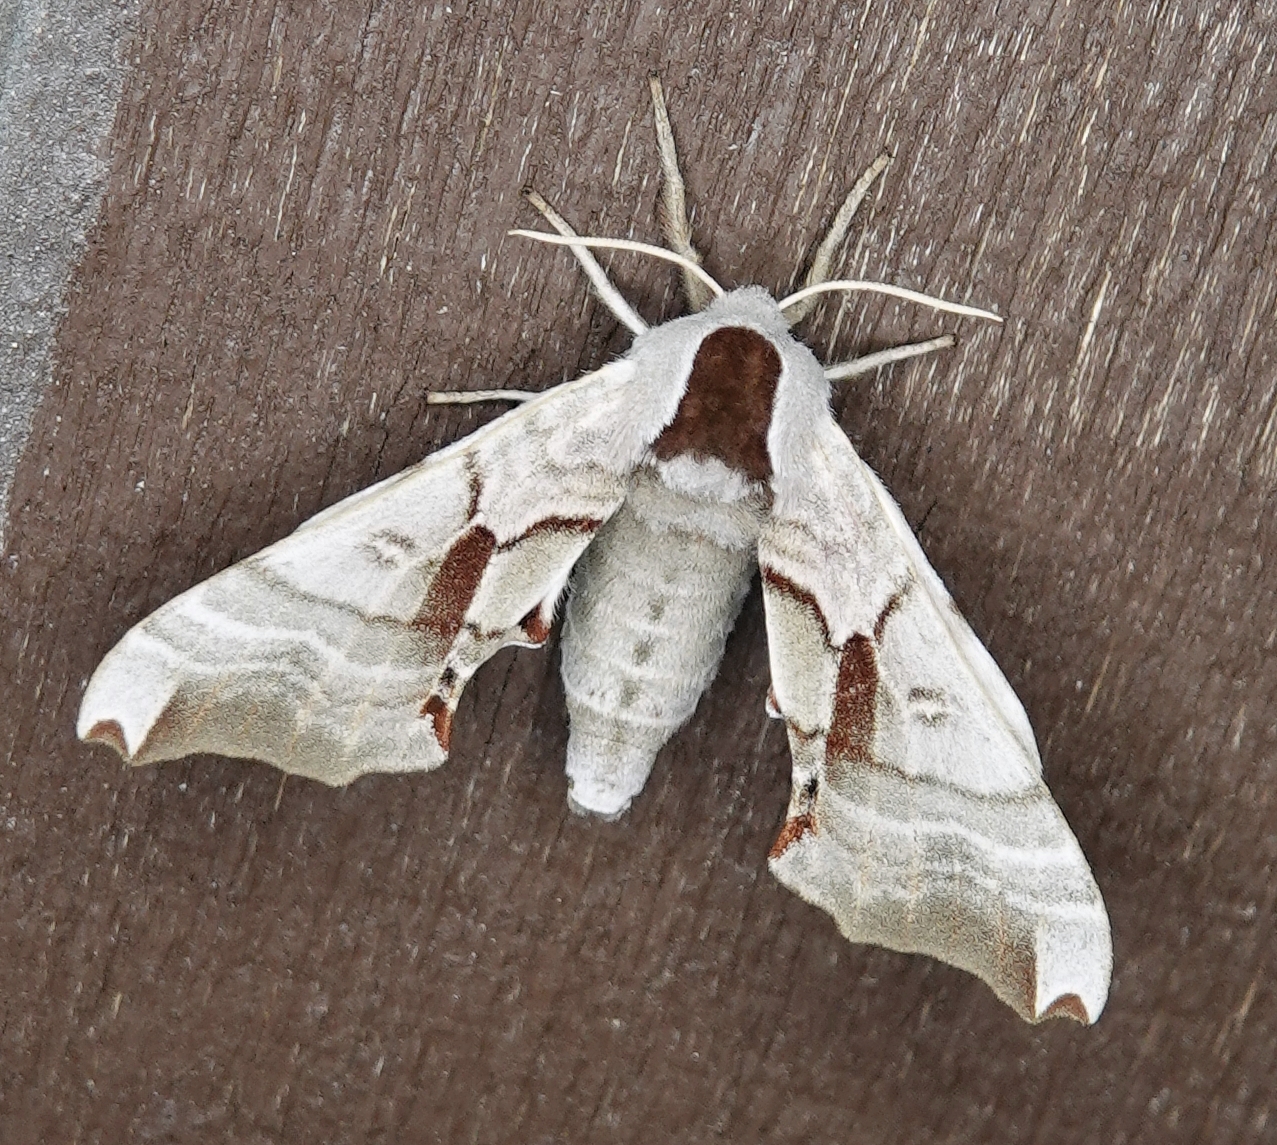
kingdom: Animalia
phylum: Arthropoda
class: Insecta
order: Lepidoptera
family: Sphingidae
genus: Smerinthus
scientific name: Smerinthus jamaicensis
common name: Twin spotted sphinx
